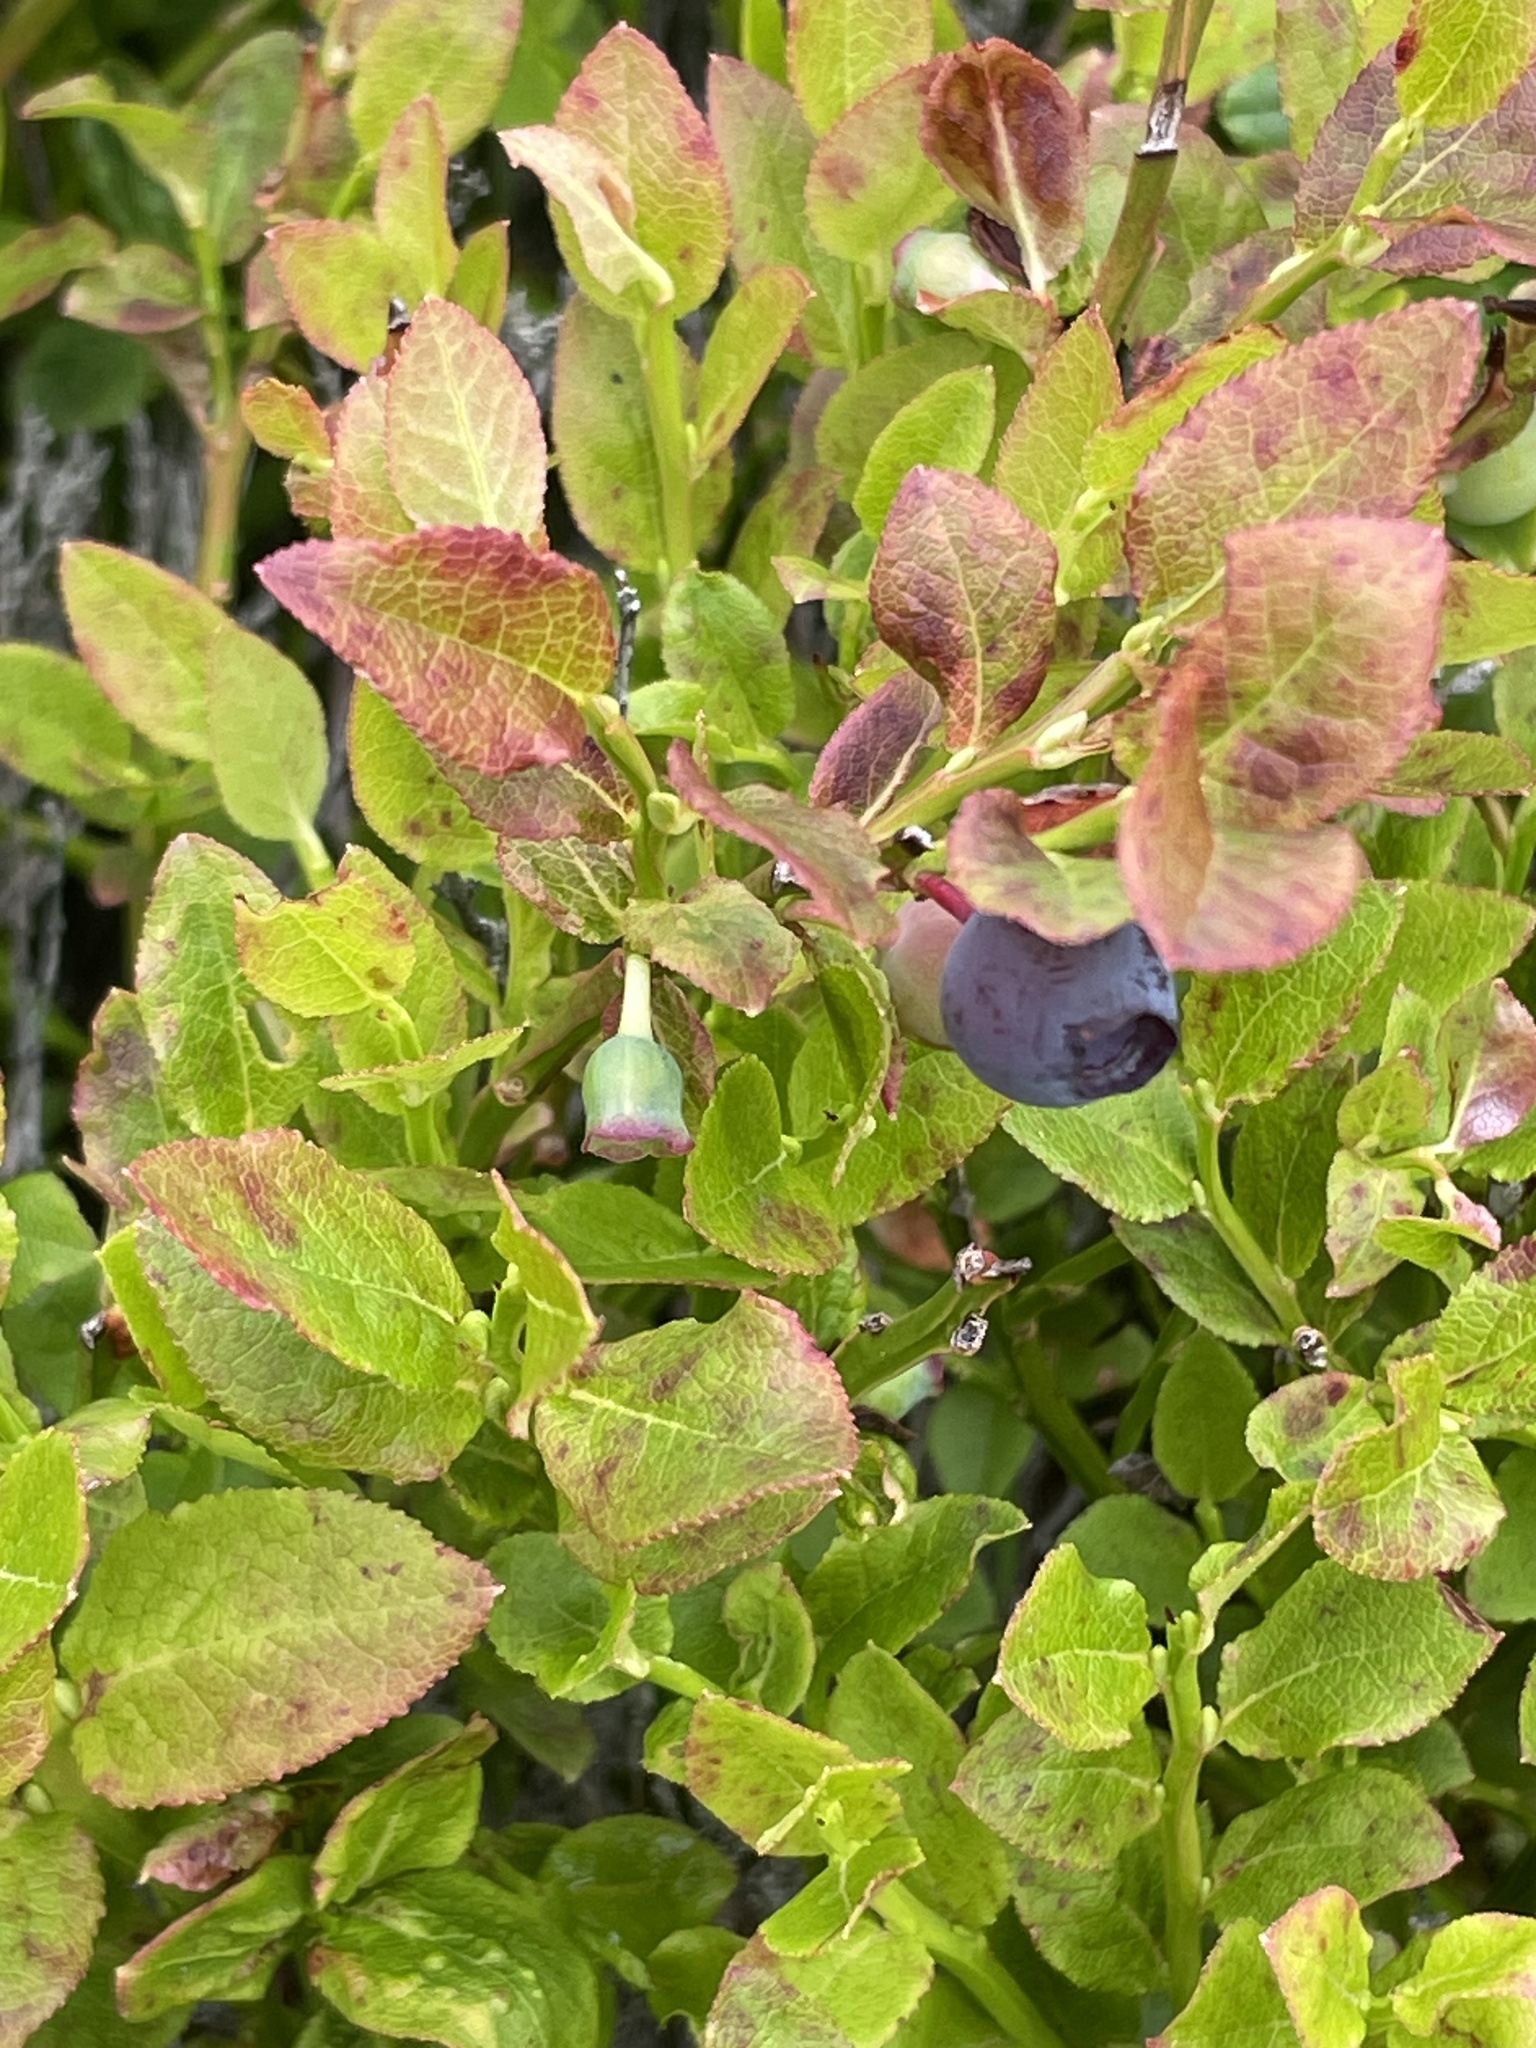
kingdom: Plantae
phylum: Tracheophyta
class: Magnoliopsida
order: Ericales
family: Ericaceae
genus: Vaccinium
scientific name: Vaccinium myrtillus
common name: Bilberry
